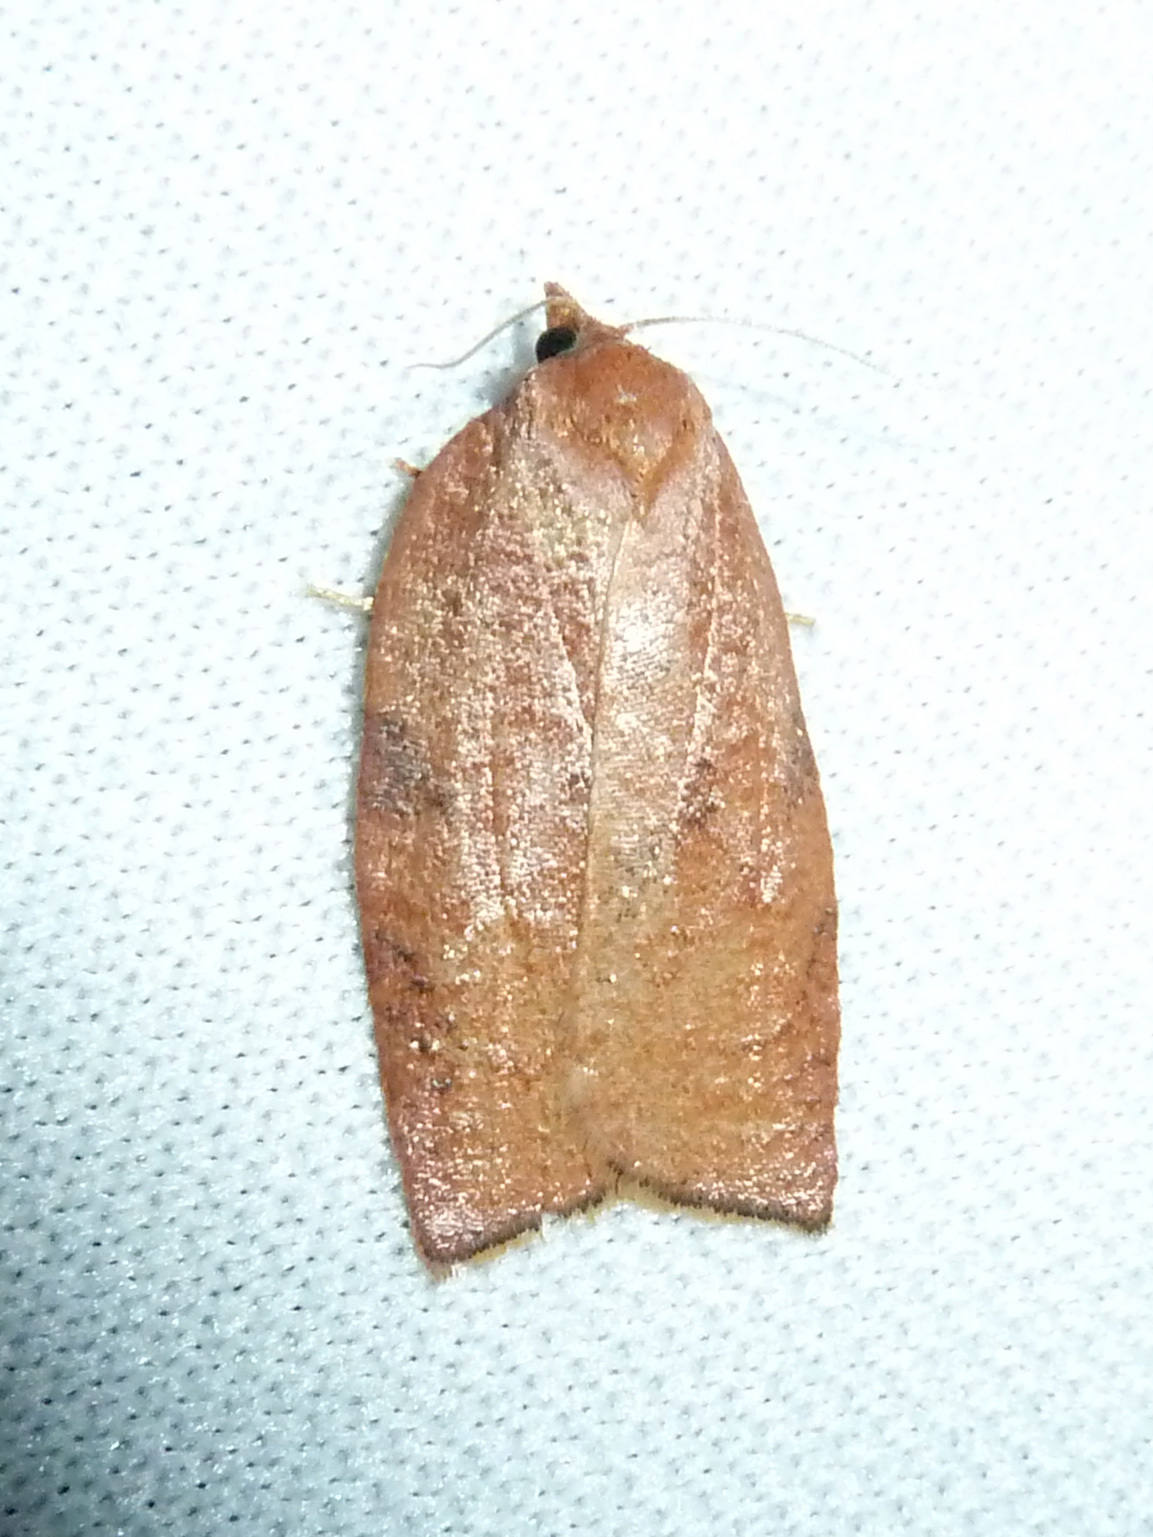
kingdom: Animalia
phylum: Arthropoda
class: Insecta
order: Lepidoptera
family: Tortricidae
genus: Amorbia
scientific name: Amorbia cuneanum
